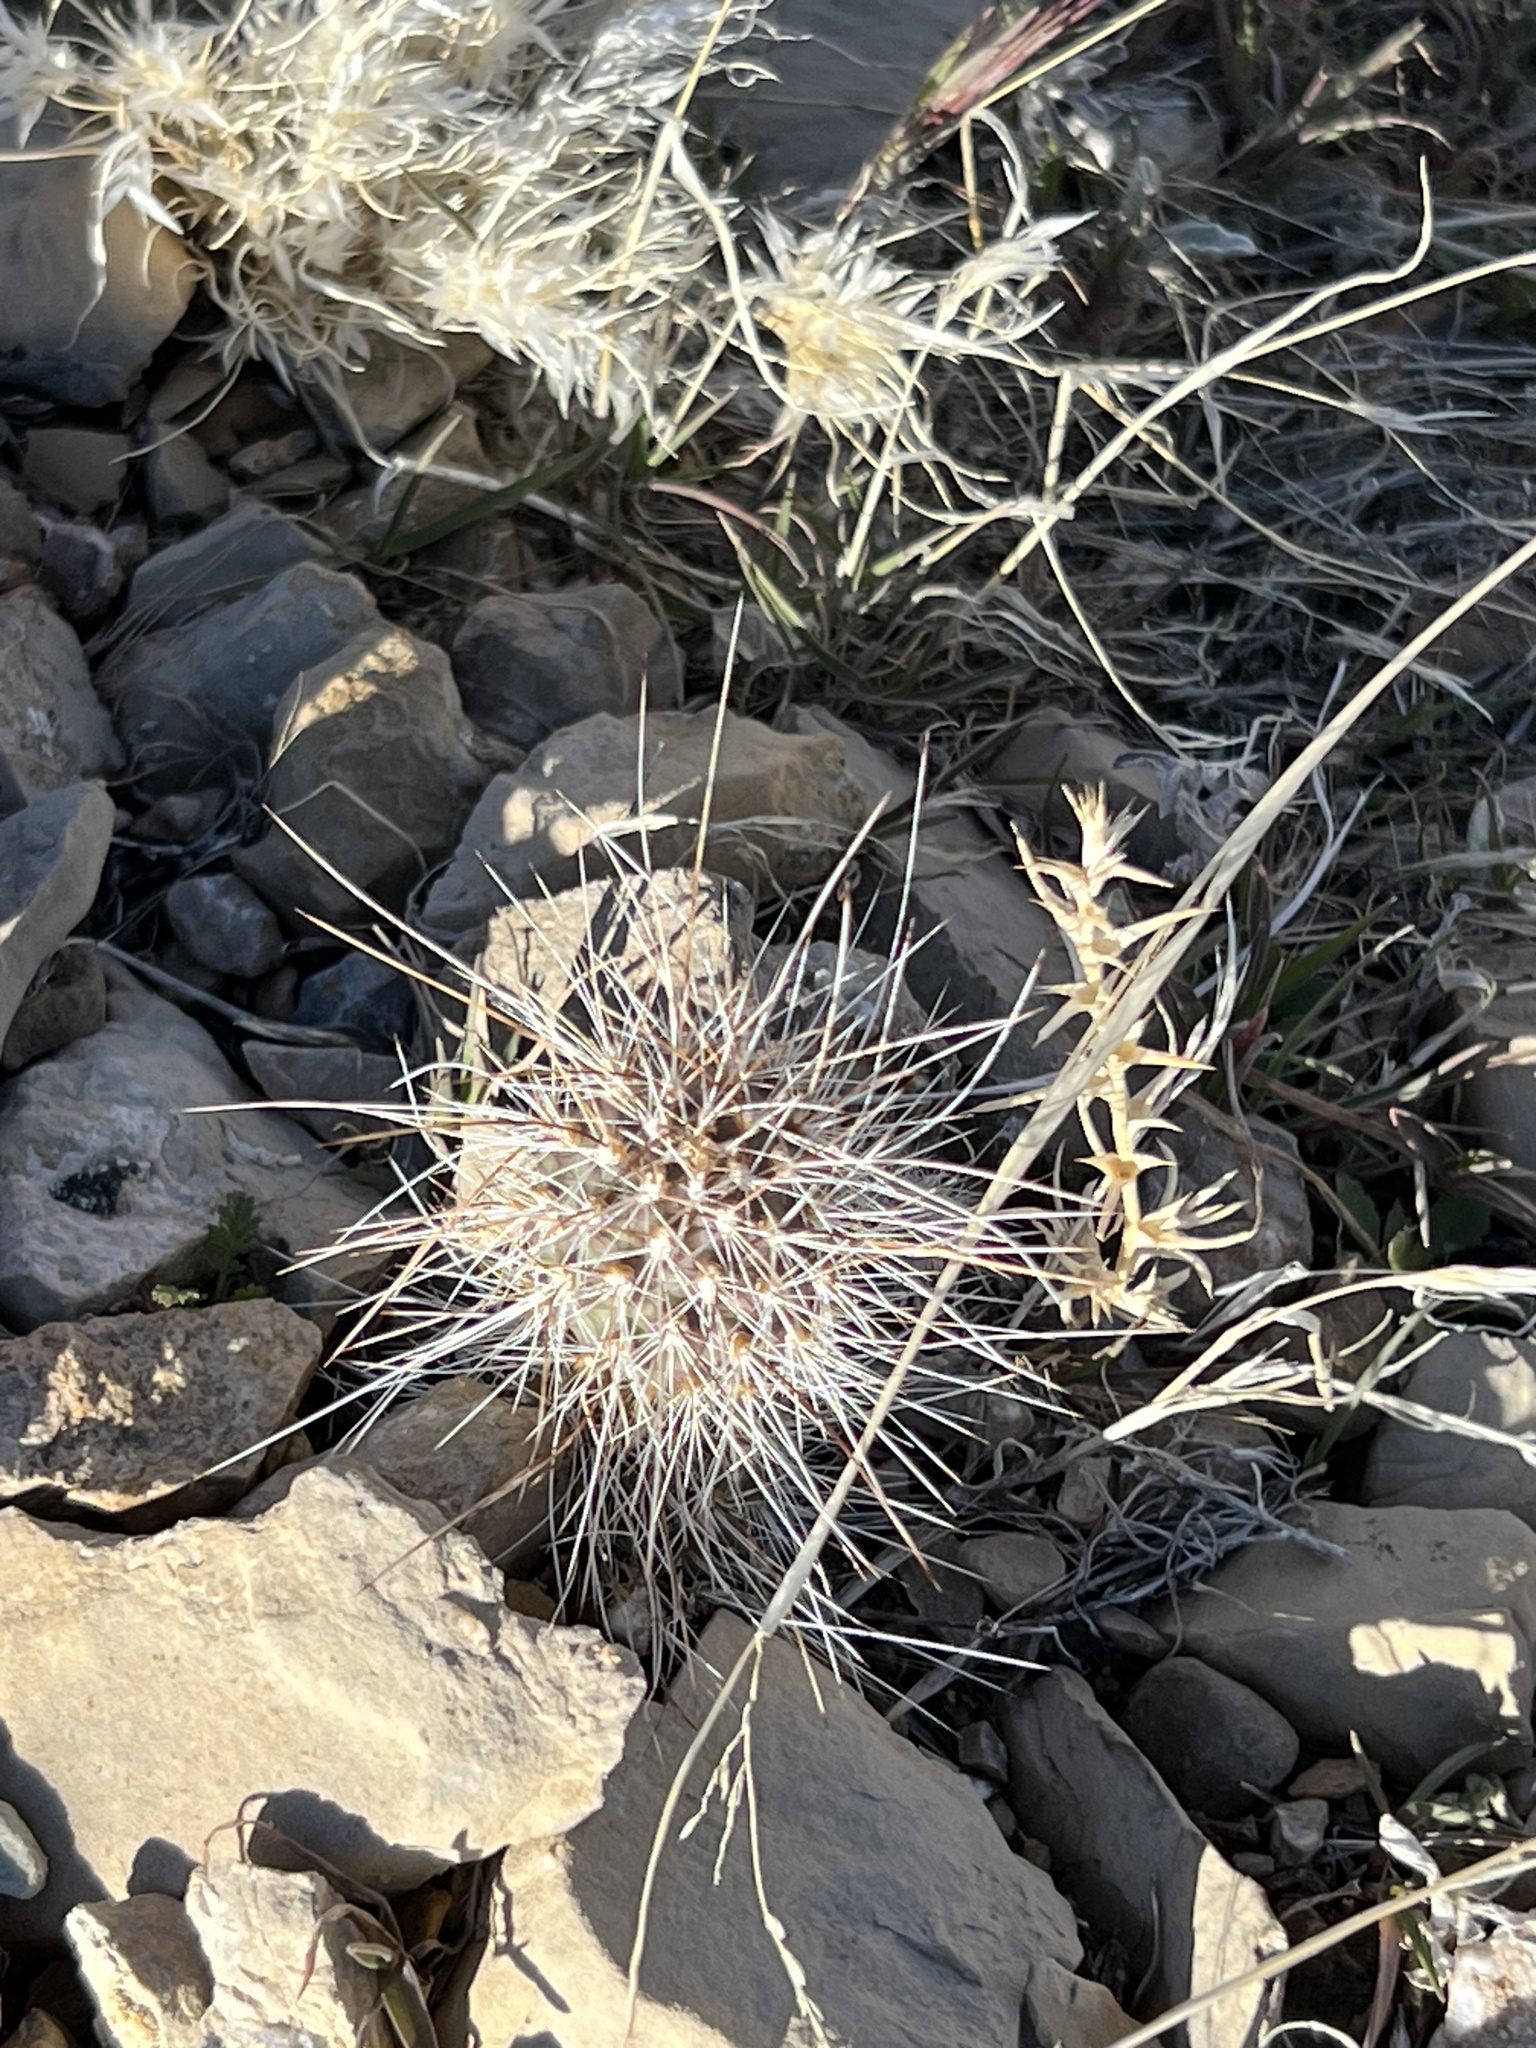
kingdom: Plantae
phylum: Tracheophyta
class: Magnoliopsida
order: Caryophyllales
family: Cactaceae
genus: Opuntia
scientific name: Opuntia polyacantha
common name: Plains prickly-pear
